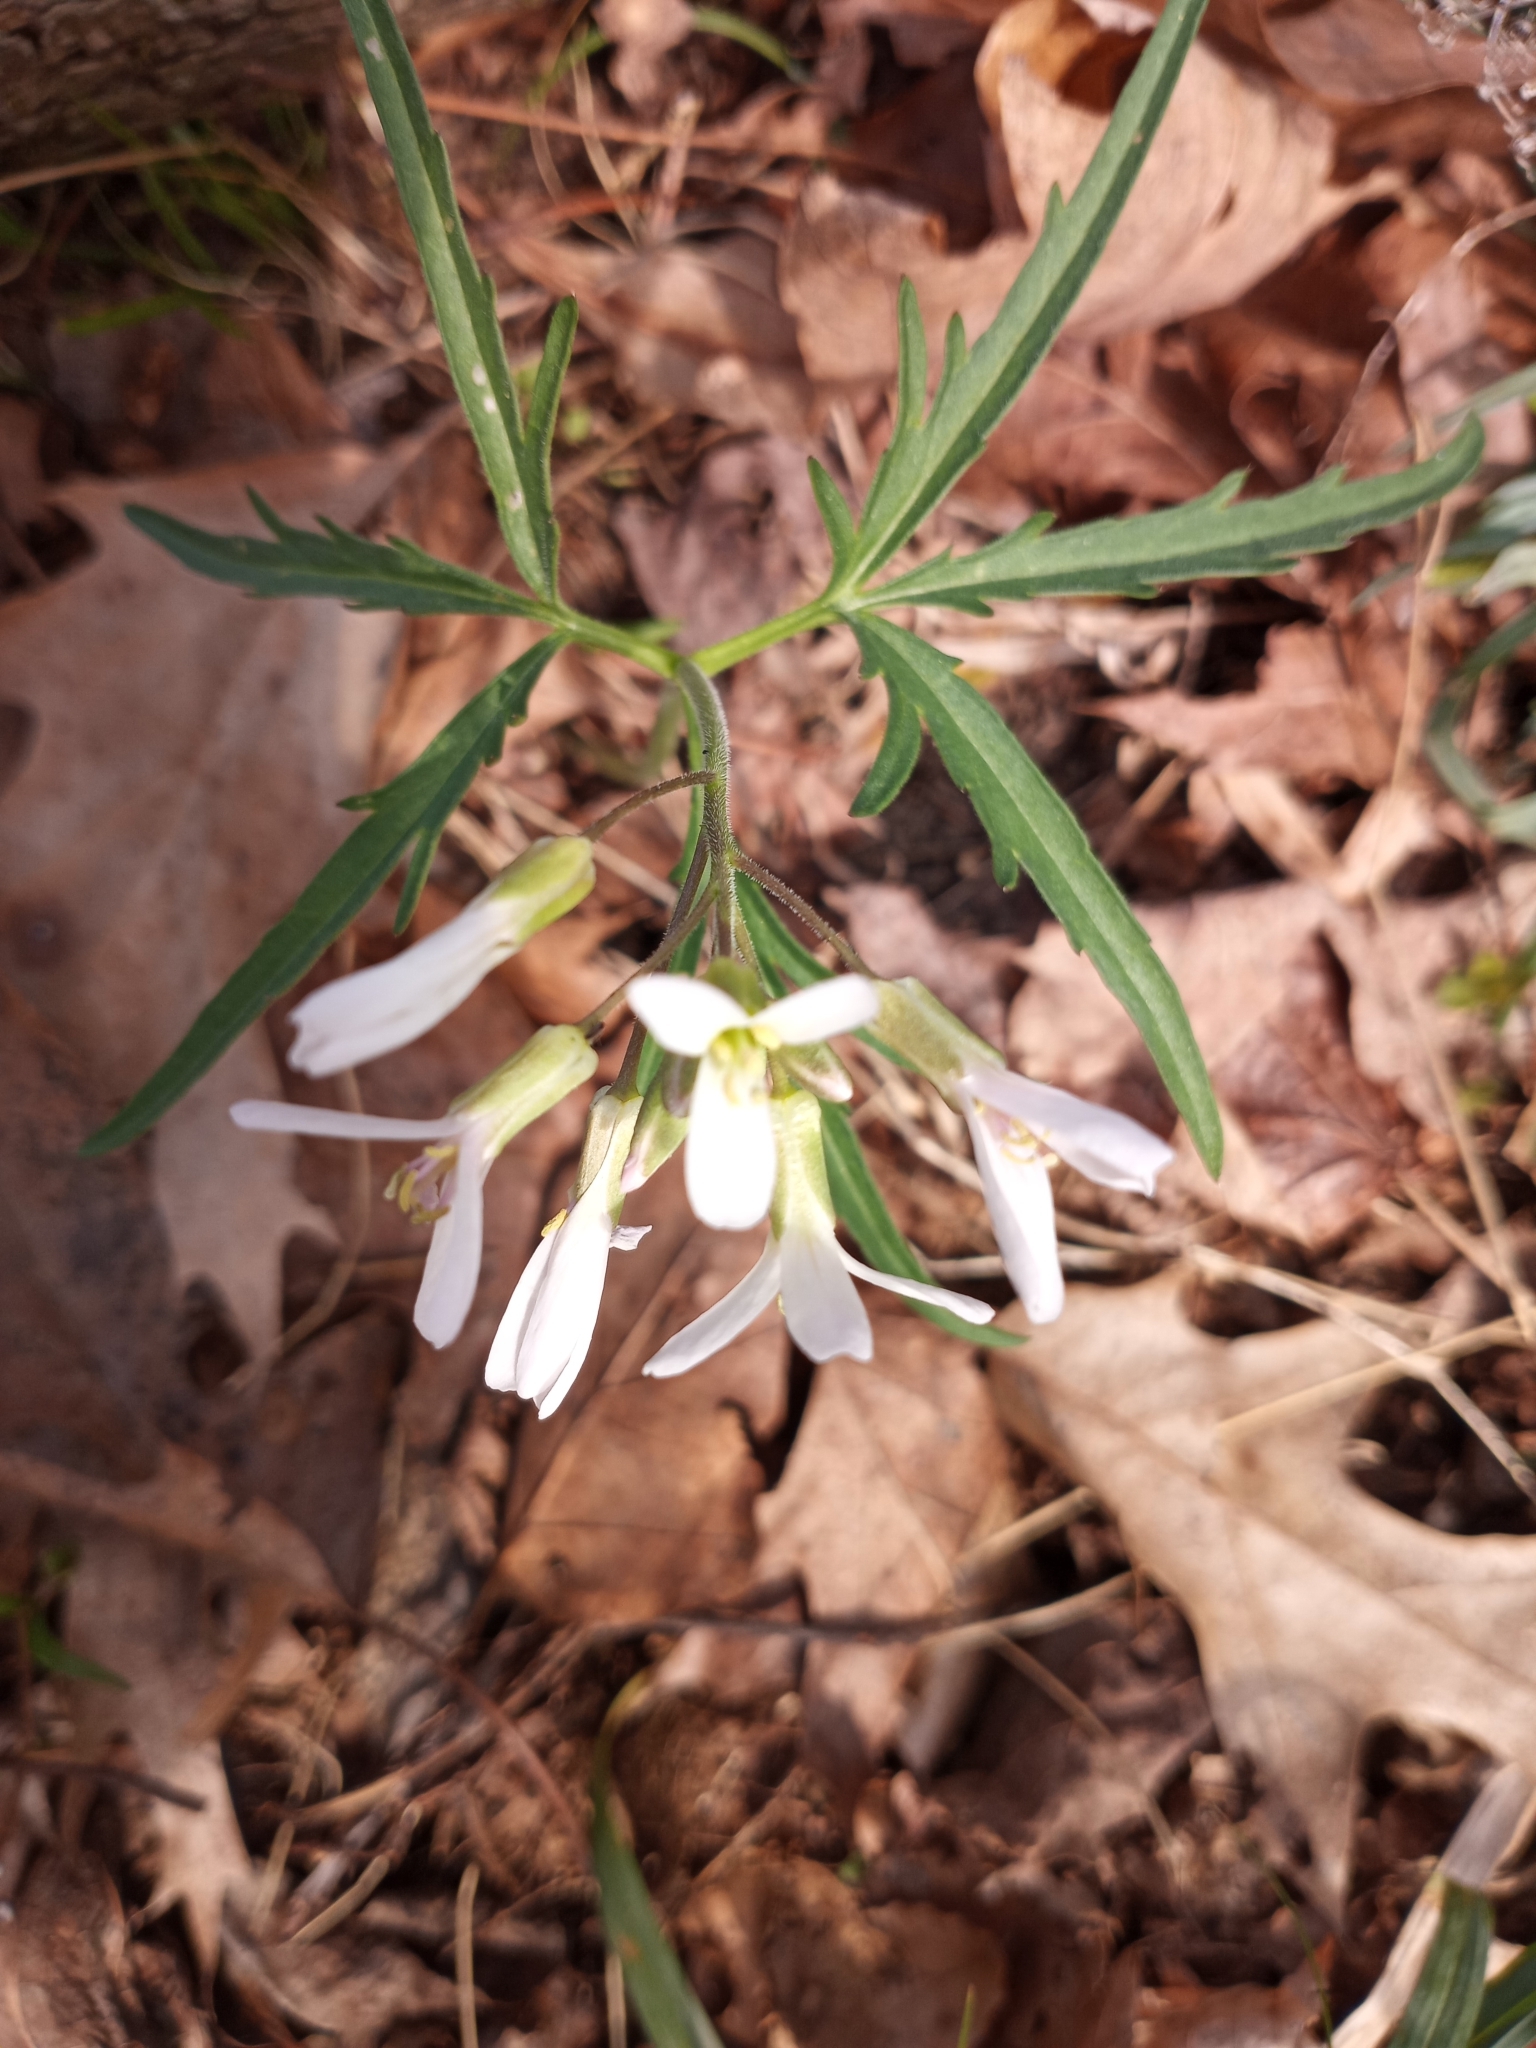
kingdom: Plantae
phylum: Tracheophyta
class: Magnoliopsida
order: Brassicales
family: Brassicaceae
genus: Cardamine
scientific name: Cardamine concatenata
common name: Cut-leaf toothcup
